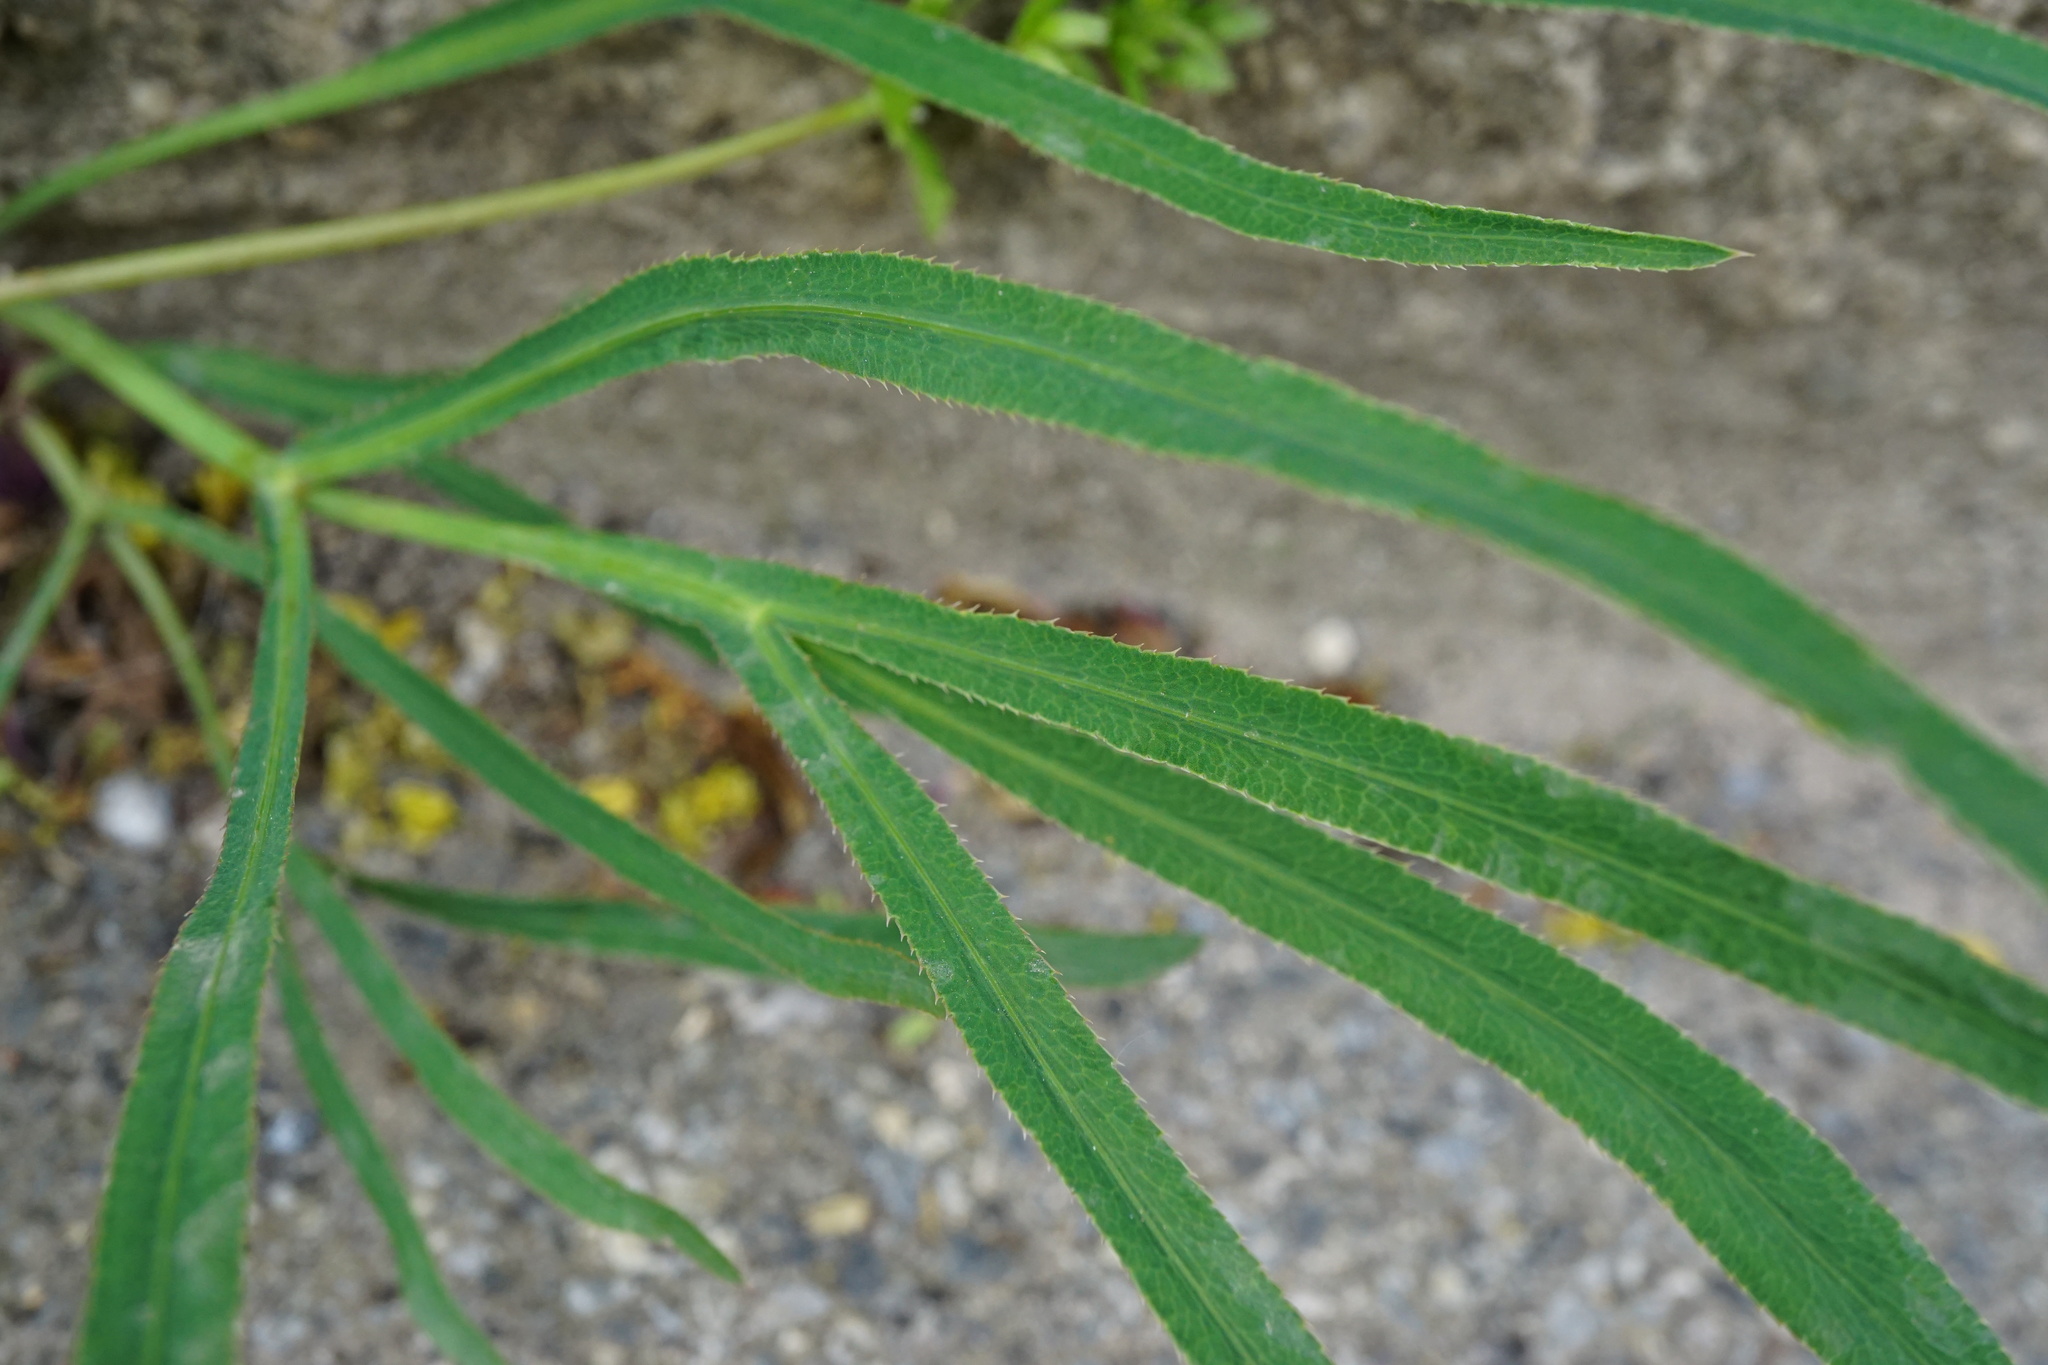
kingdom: Plantae
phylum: Tracheophyta
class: Magnoliopsida
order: Apiales
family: Apiaceae
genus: Falcaria
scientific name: Falcaria vulgaris
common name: Longleaf
